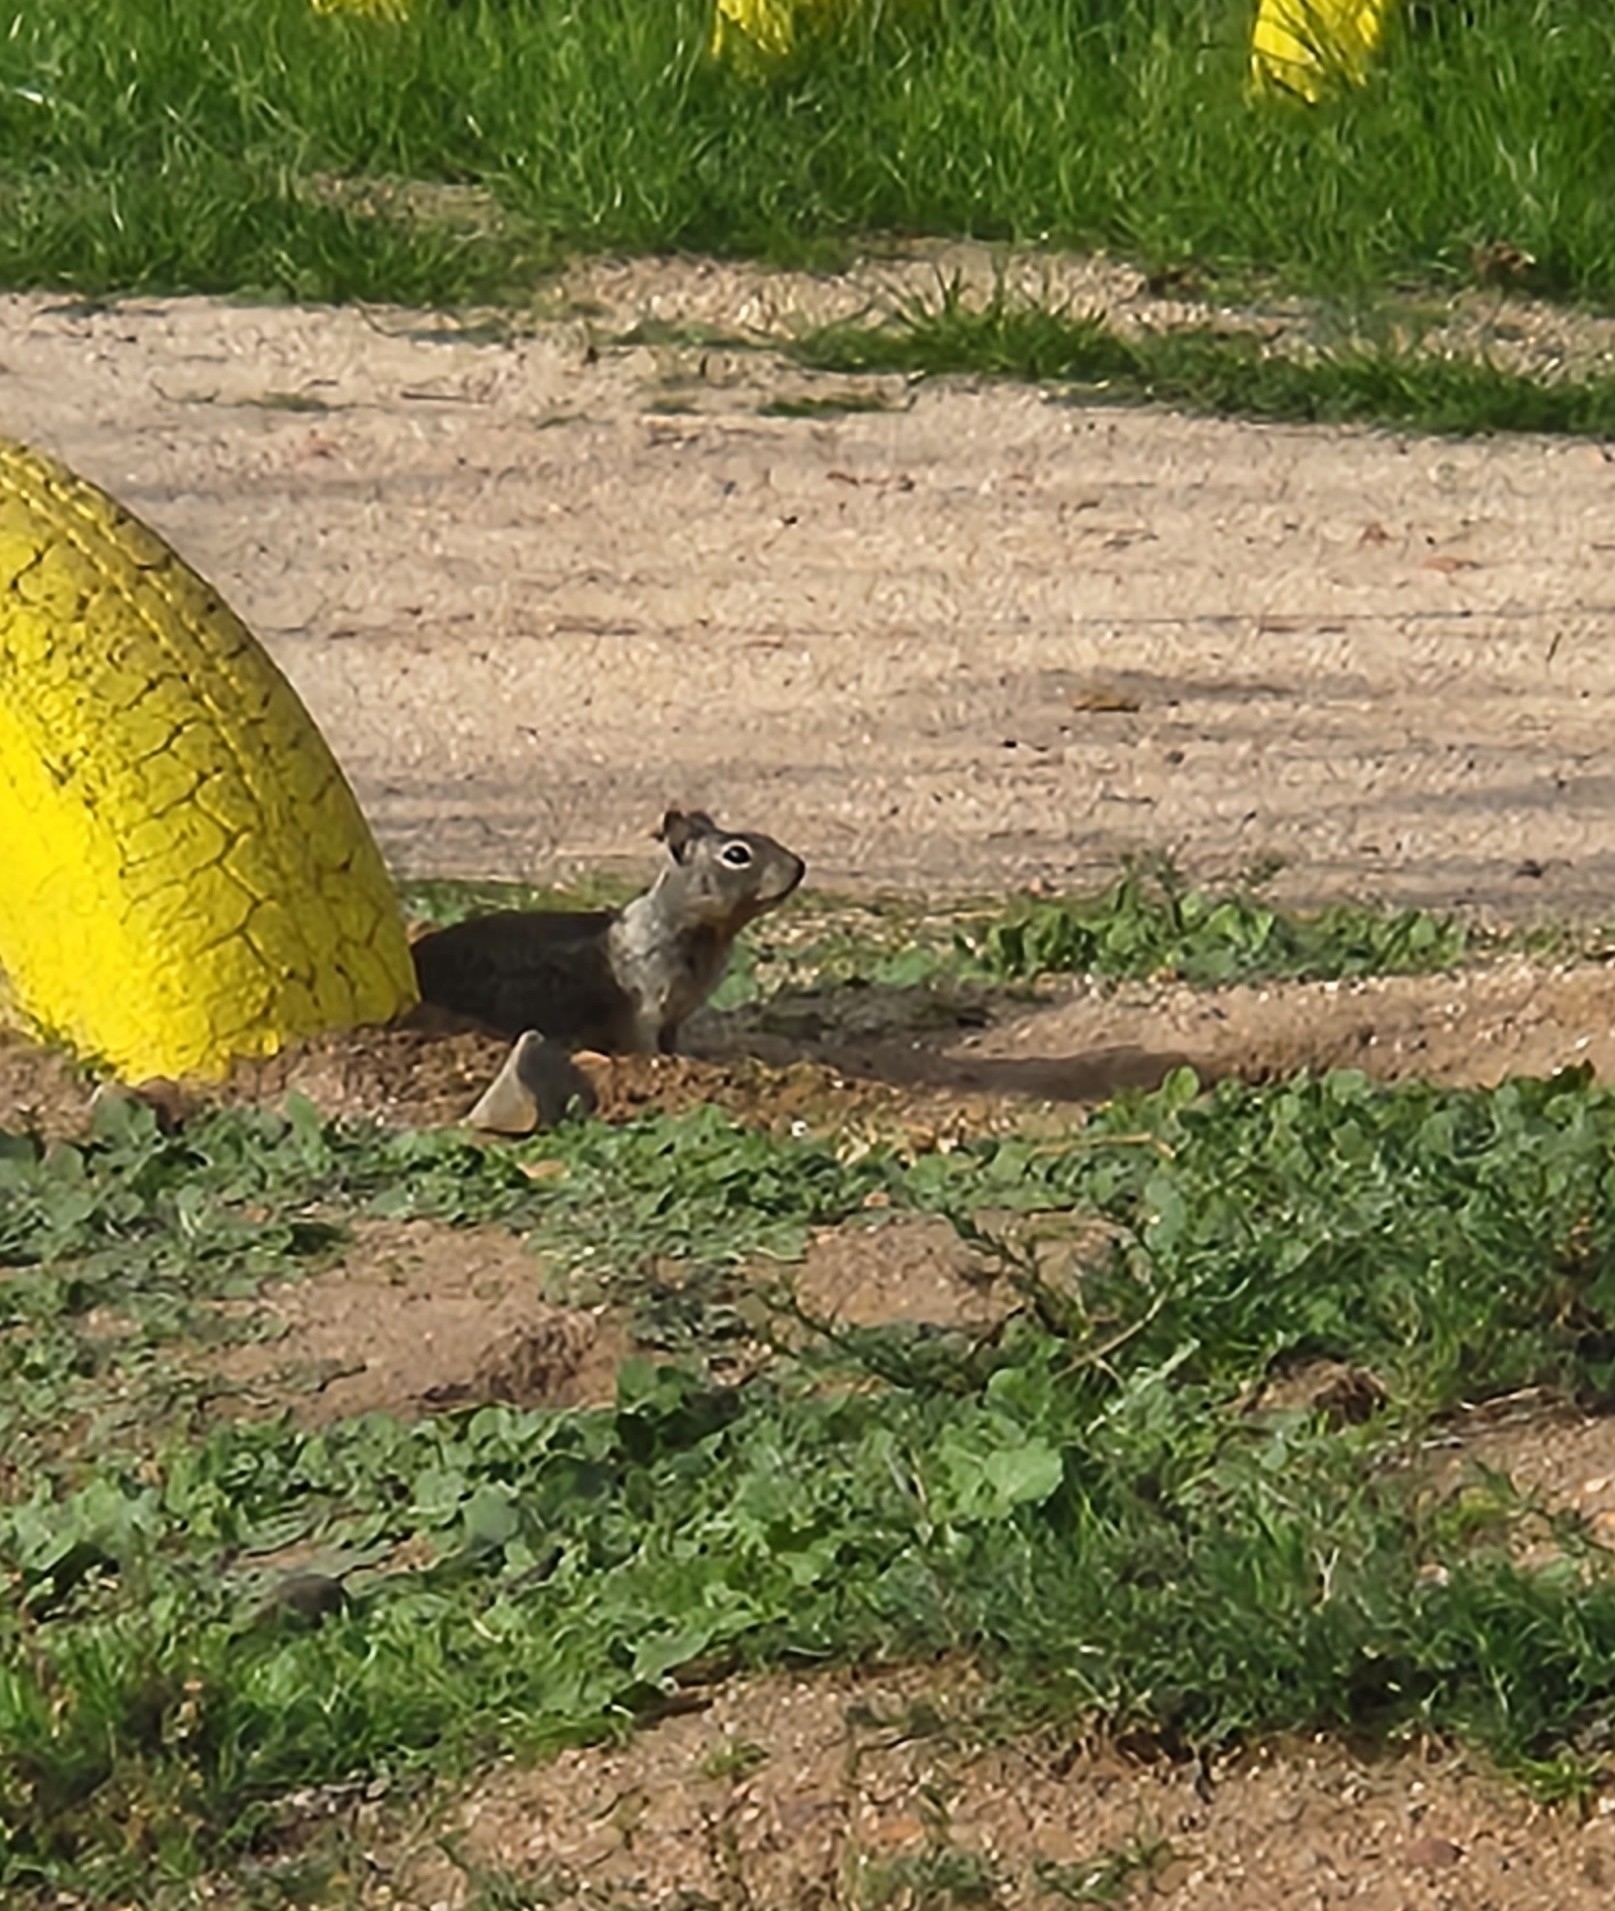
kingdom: Animalia
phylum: Chordata
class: Mammalia
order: Rodentia
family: Sciuridae
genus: Otospermophilus
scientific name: Otospermophilus beecheyi
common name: California ground squirrel
